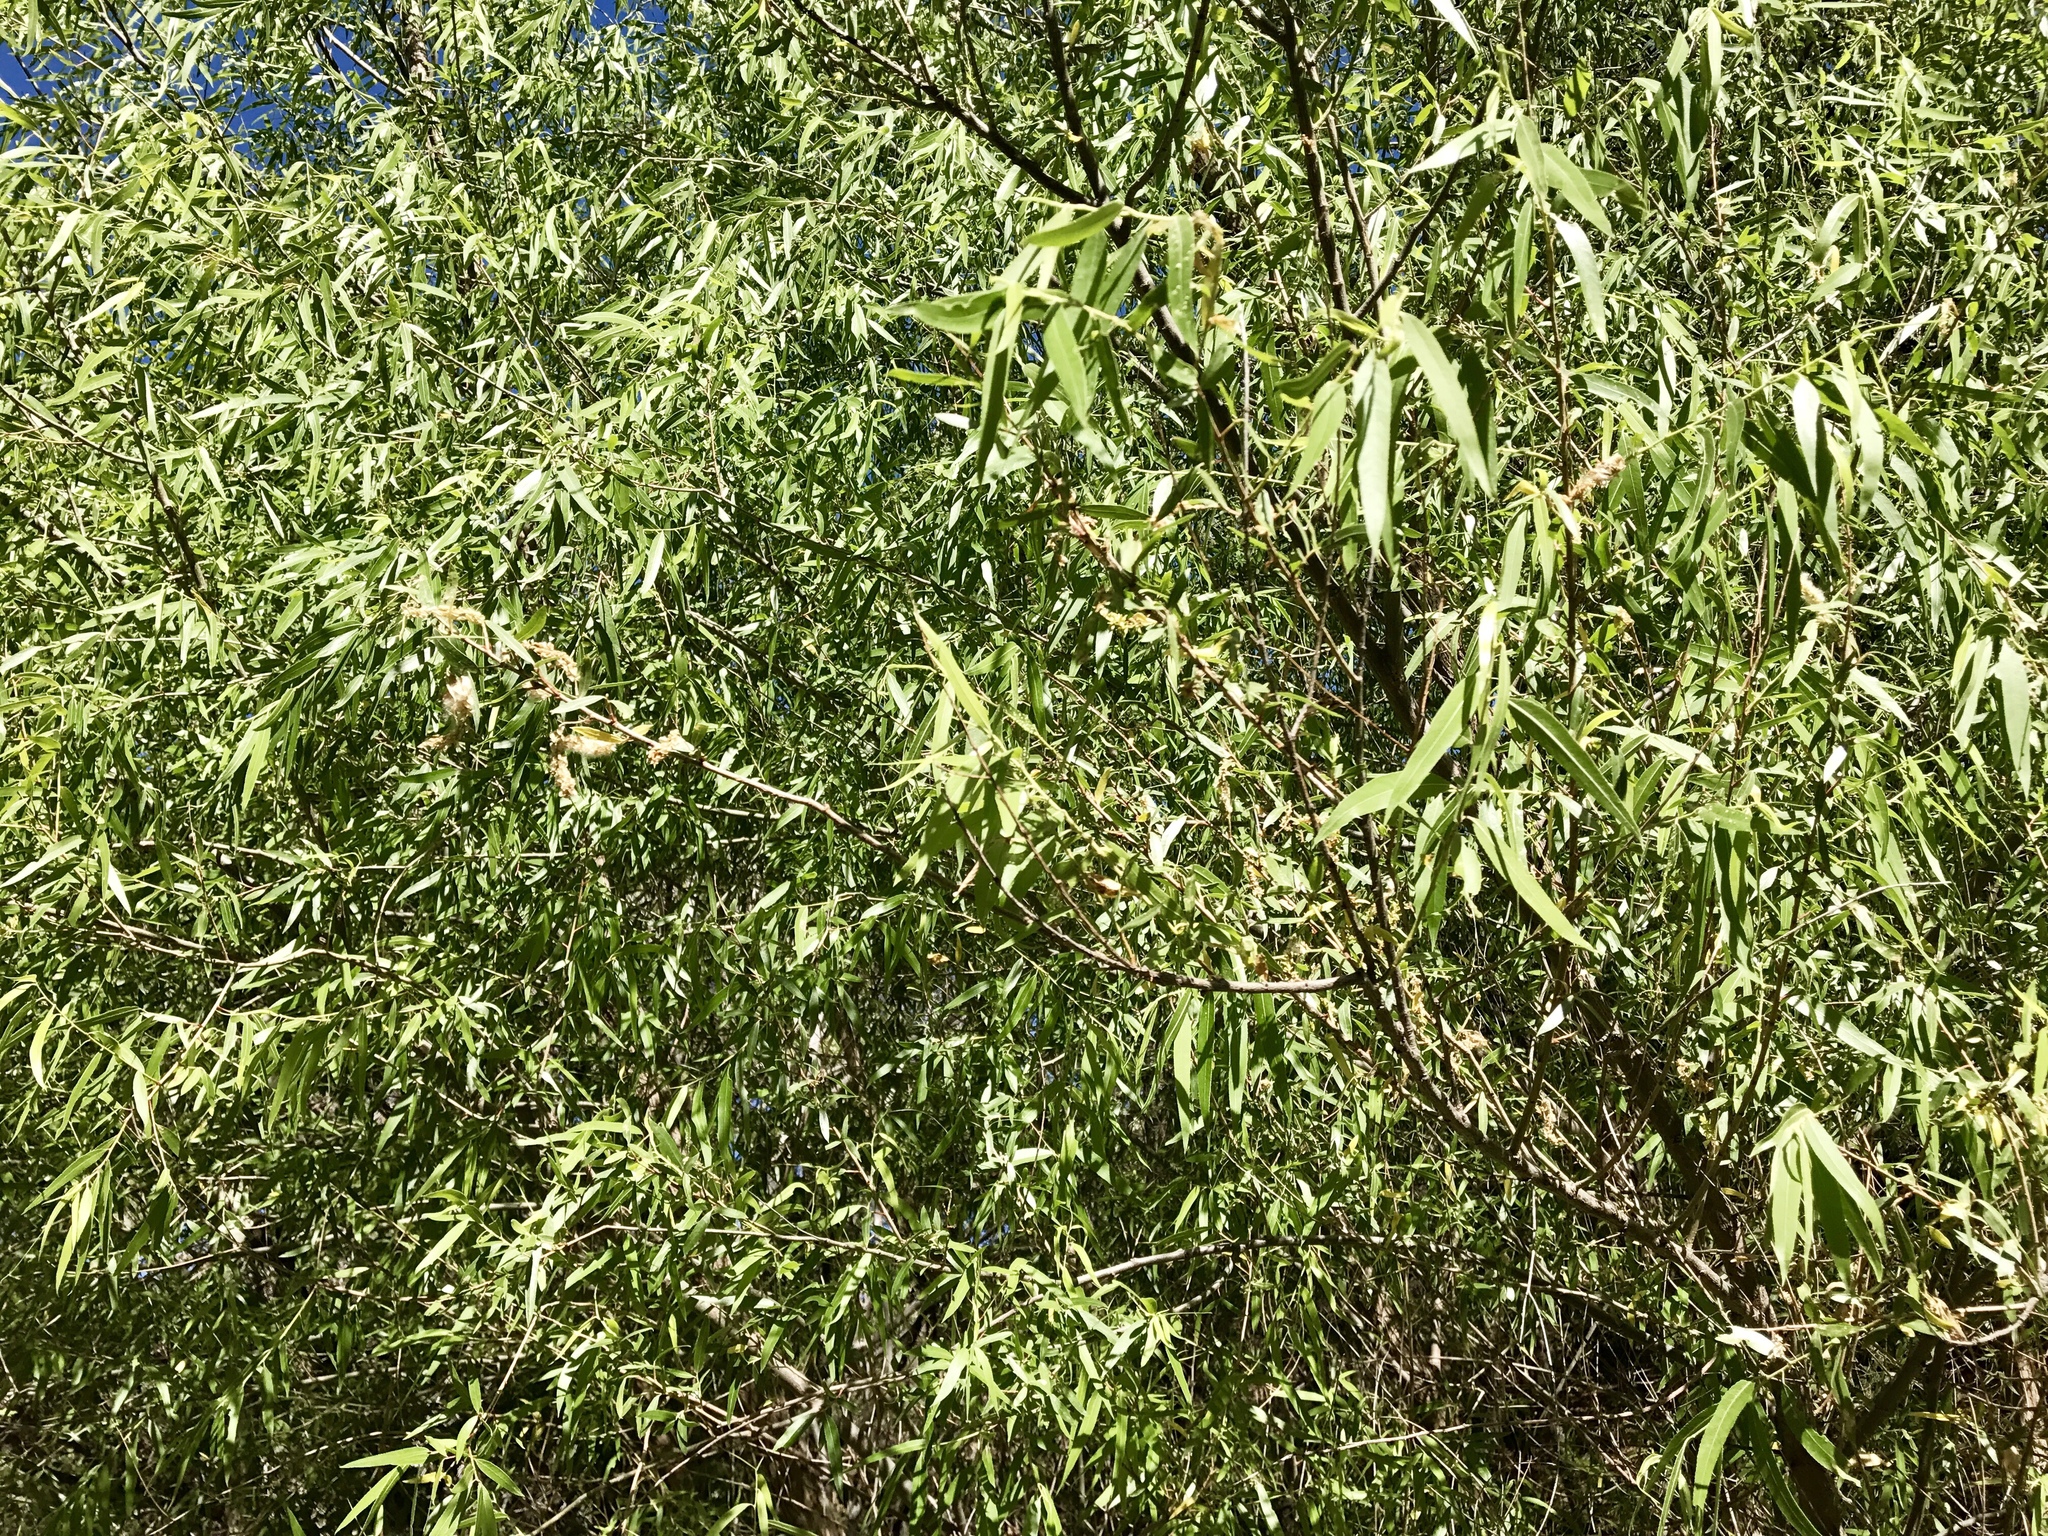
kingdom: Plantae
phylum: Tracheophyta
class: Magnoliopsida
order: Malpighiales
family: Salicaceae
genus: Salix
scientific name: Salix gooddingii
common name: Goodding's willow
